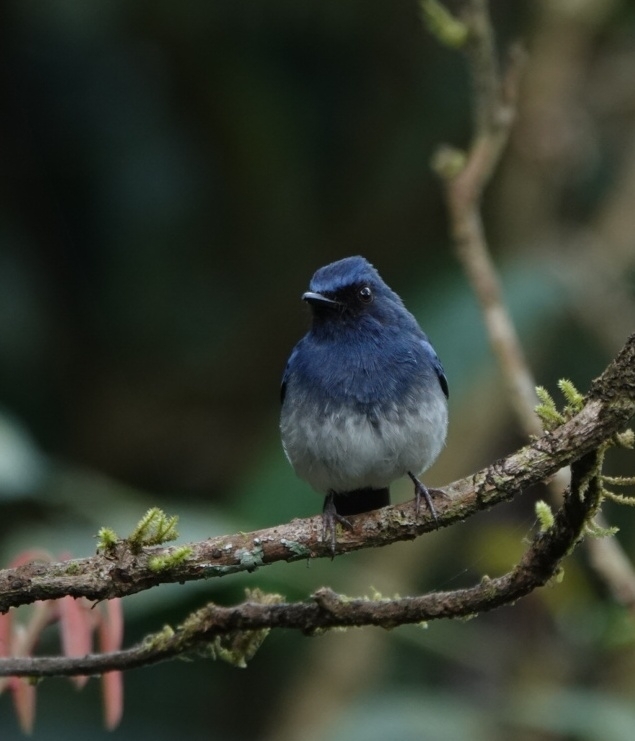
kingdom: Animalia
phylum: Chordata
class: Aves
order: Passeriformes
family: Muscicapidae
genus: Cyornis
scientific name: Cyornis pallidipes
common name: White-bellied blue flycatcher
